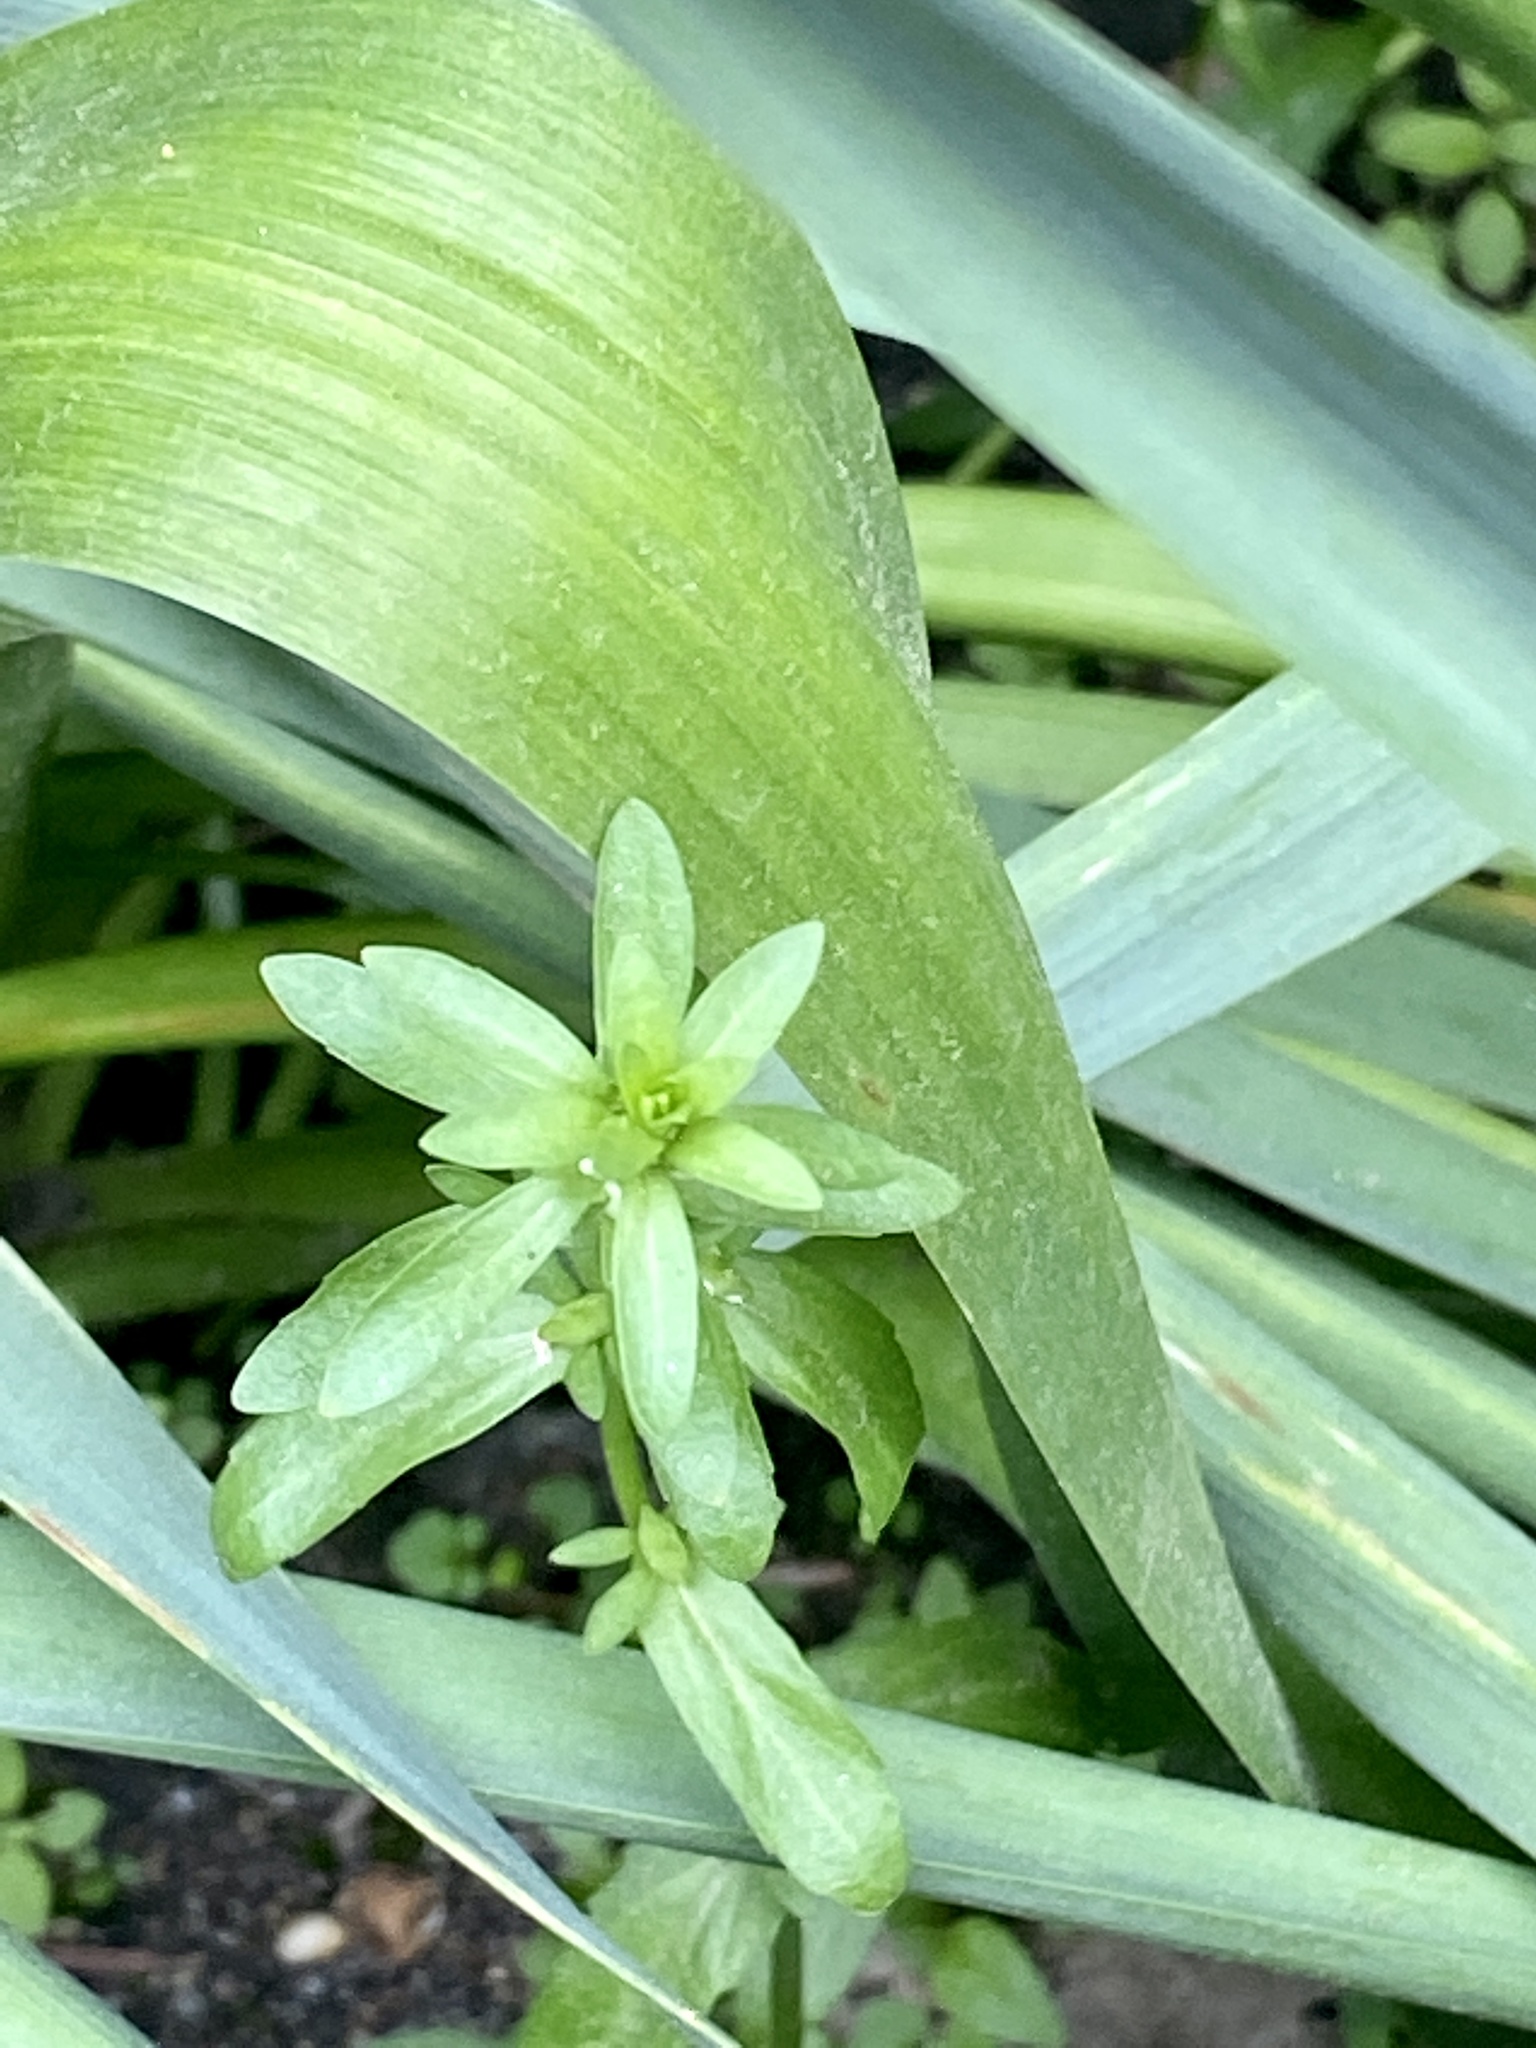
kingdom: Plantae
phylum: Tracheophyta
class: Magnoliopsida
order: Lamiales
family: Plantaginaceae
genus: Veronica
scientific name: Veronica peregrina
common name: Neckweed
